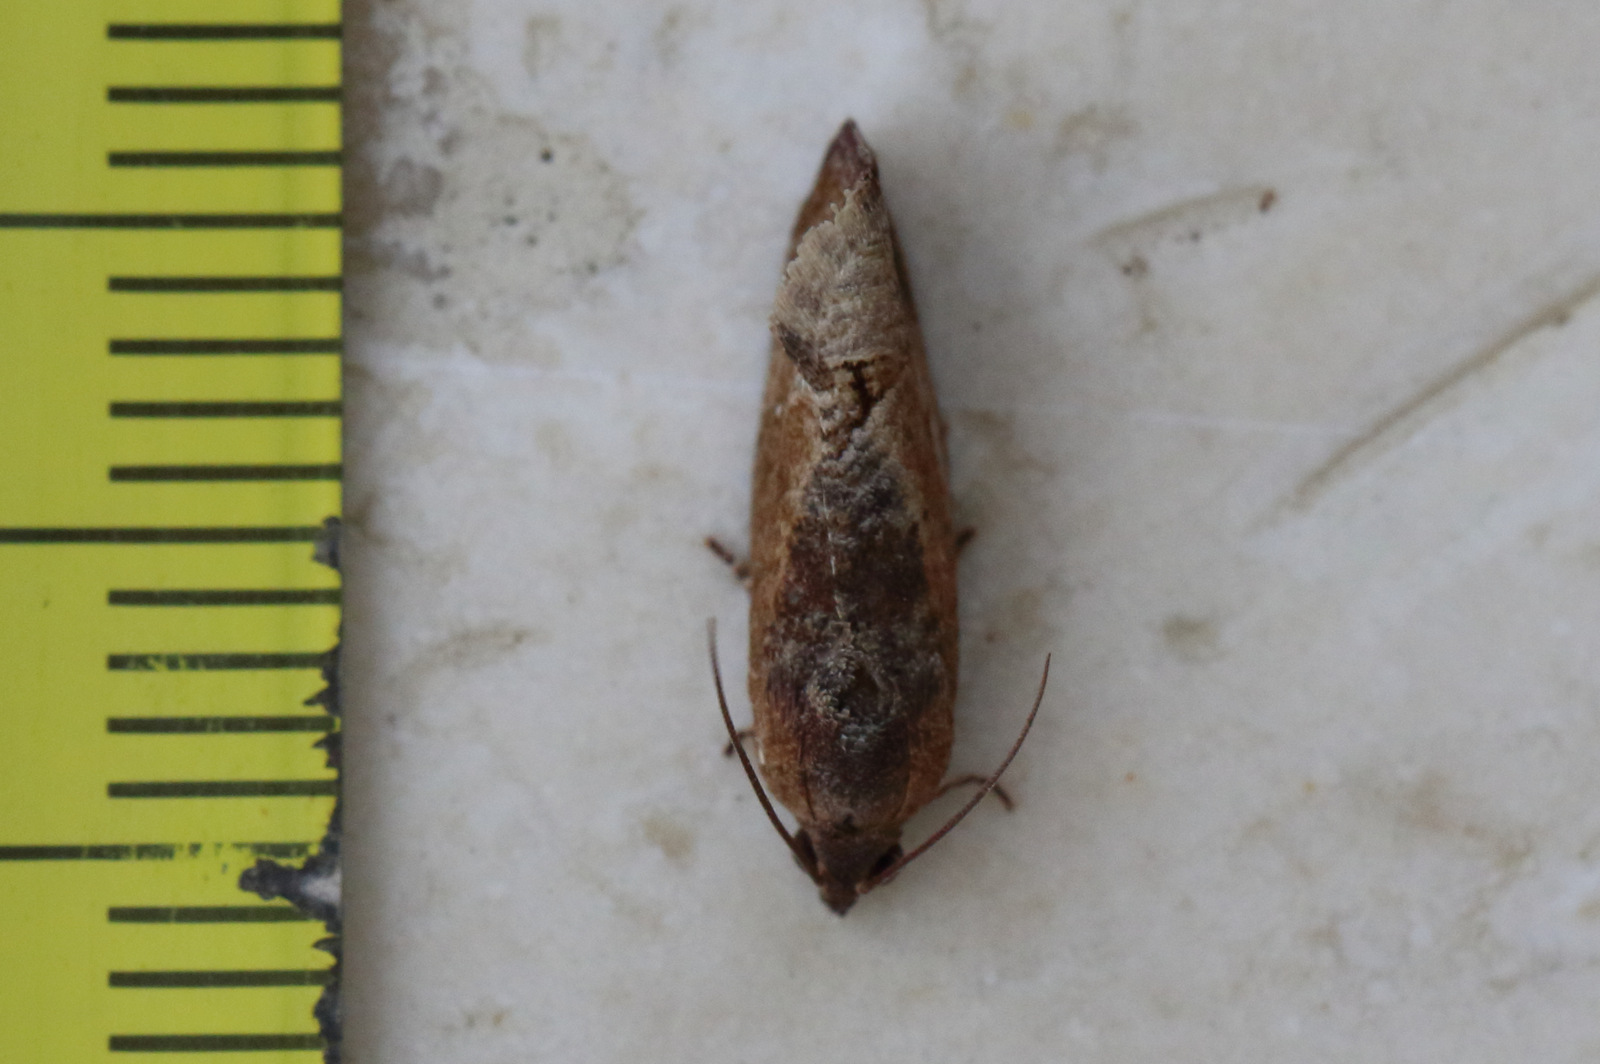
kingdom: Animalia
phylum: Arthropoda
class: Insecta
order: Lepidoptera
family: Tortricidae
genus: Cryptophlebia
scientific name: Cryptophlebia ombrodelta
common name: Litchi fruit moth
